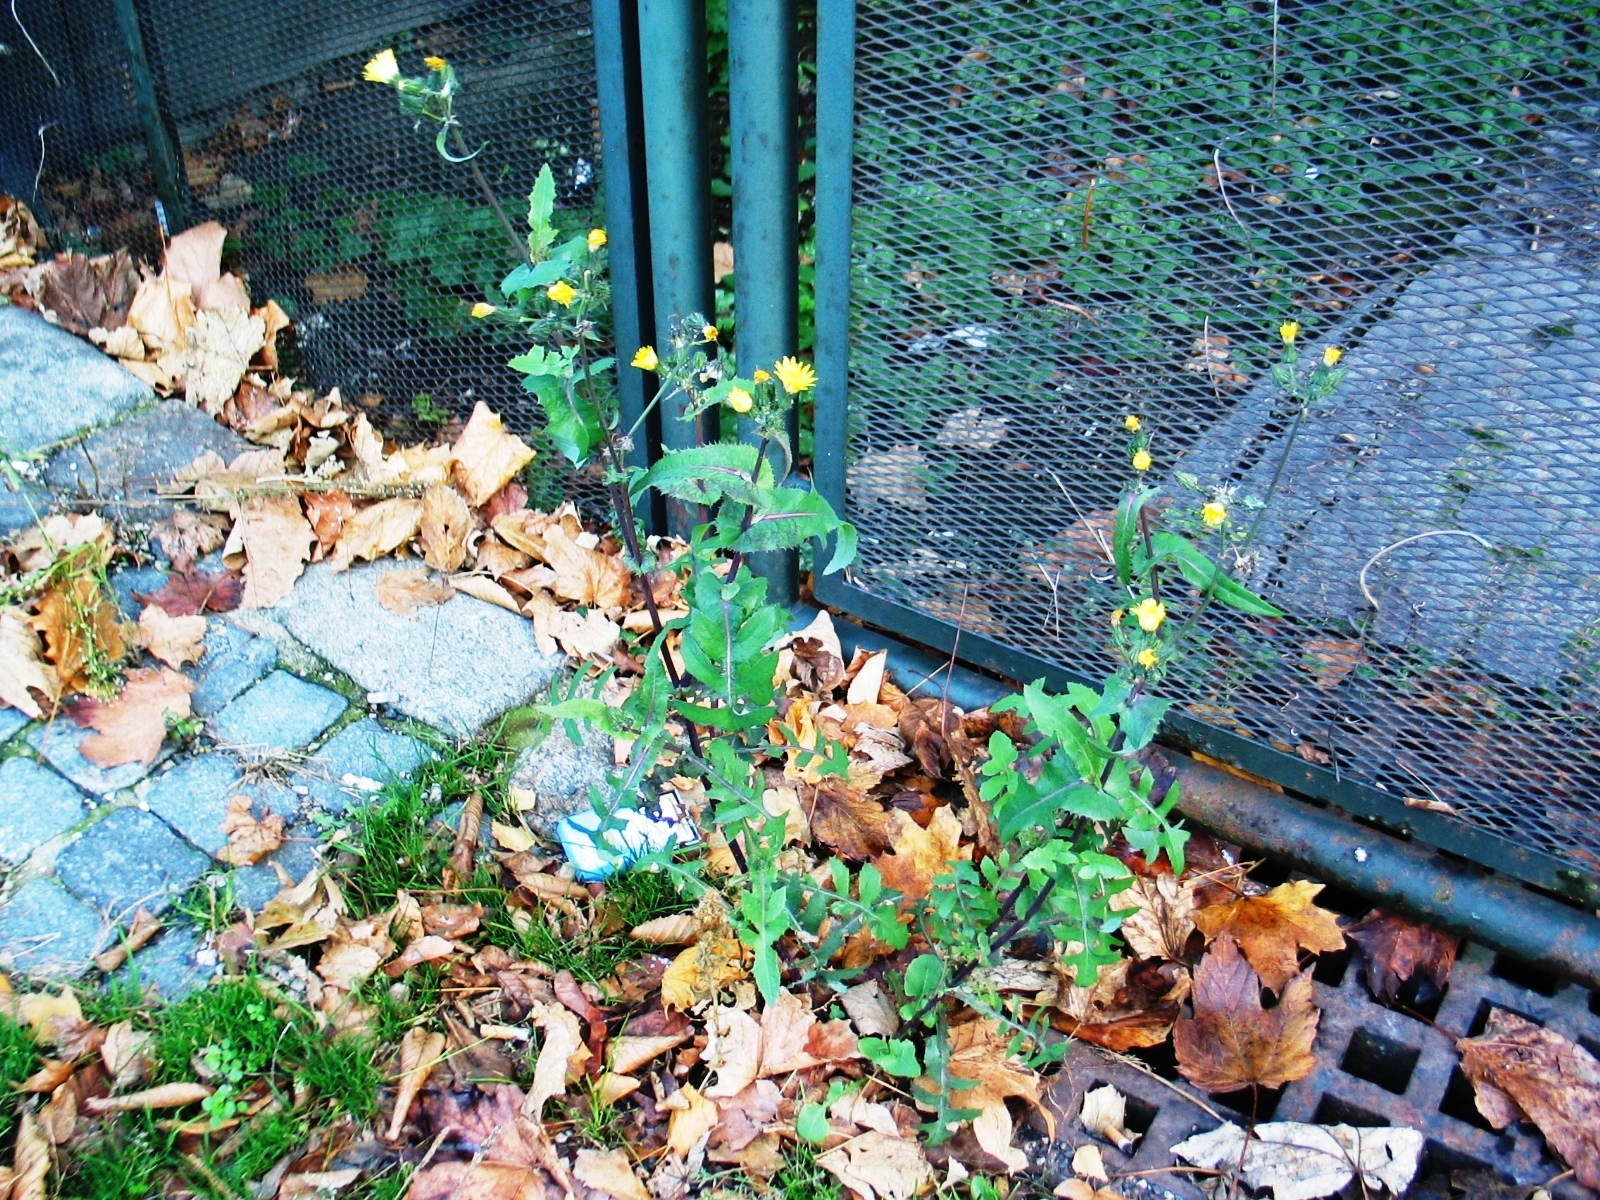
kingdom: Plantae
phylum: Tracheophyta
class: Magnoliopsida
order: Asterales
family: Asteraceae
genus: Sonchus
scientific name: Sonchus oleraceus
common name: Common sowthistle
